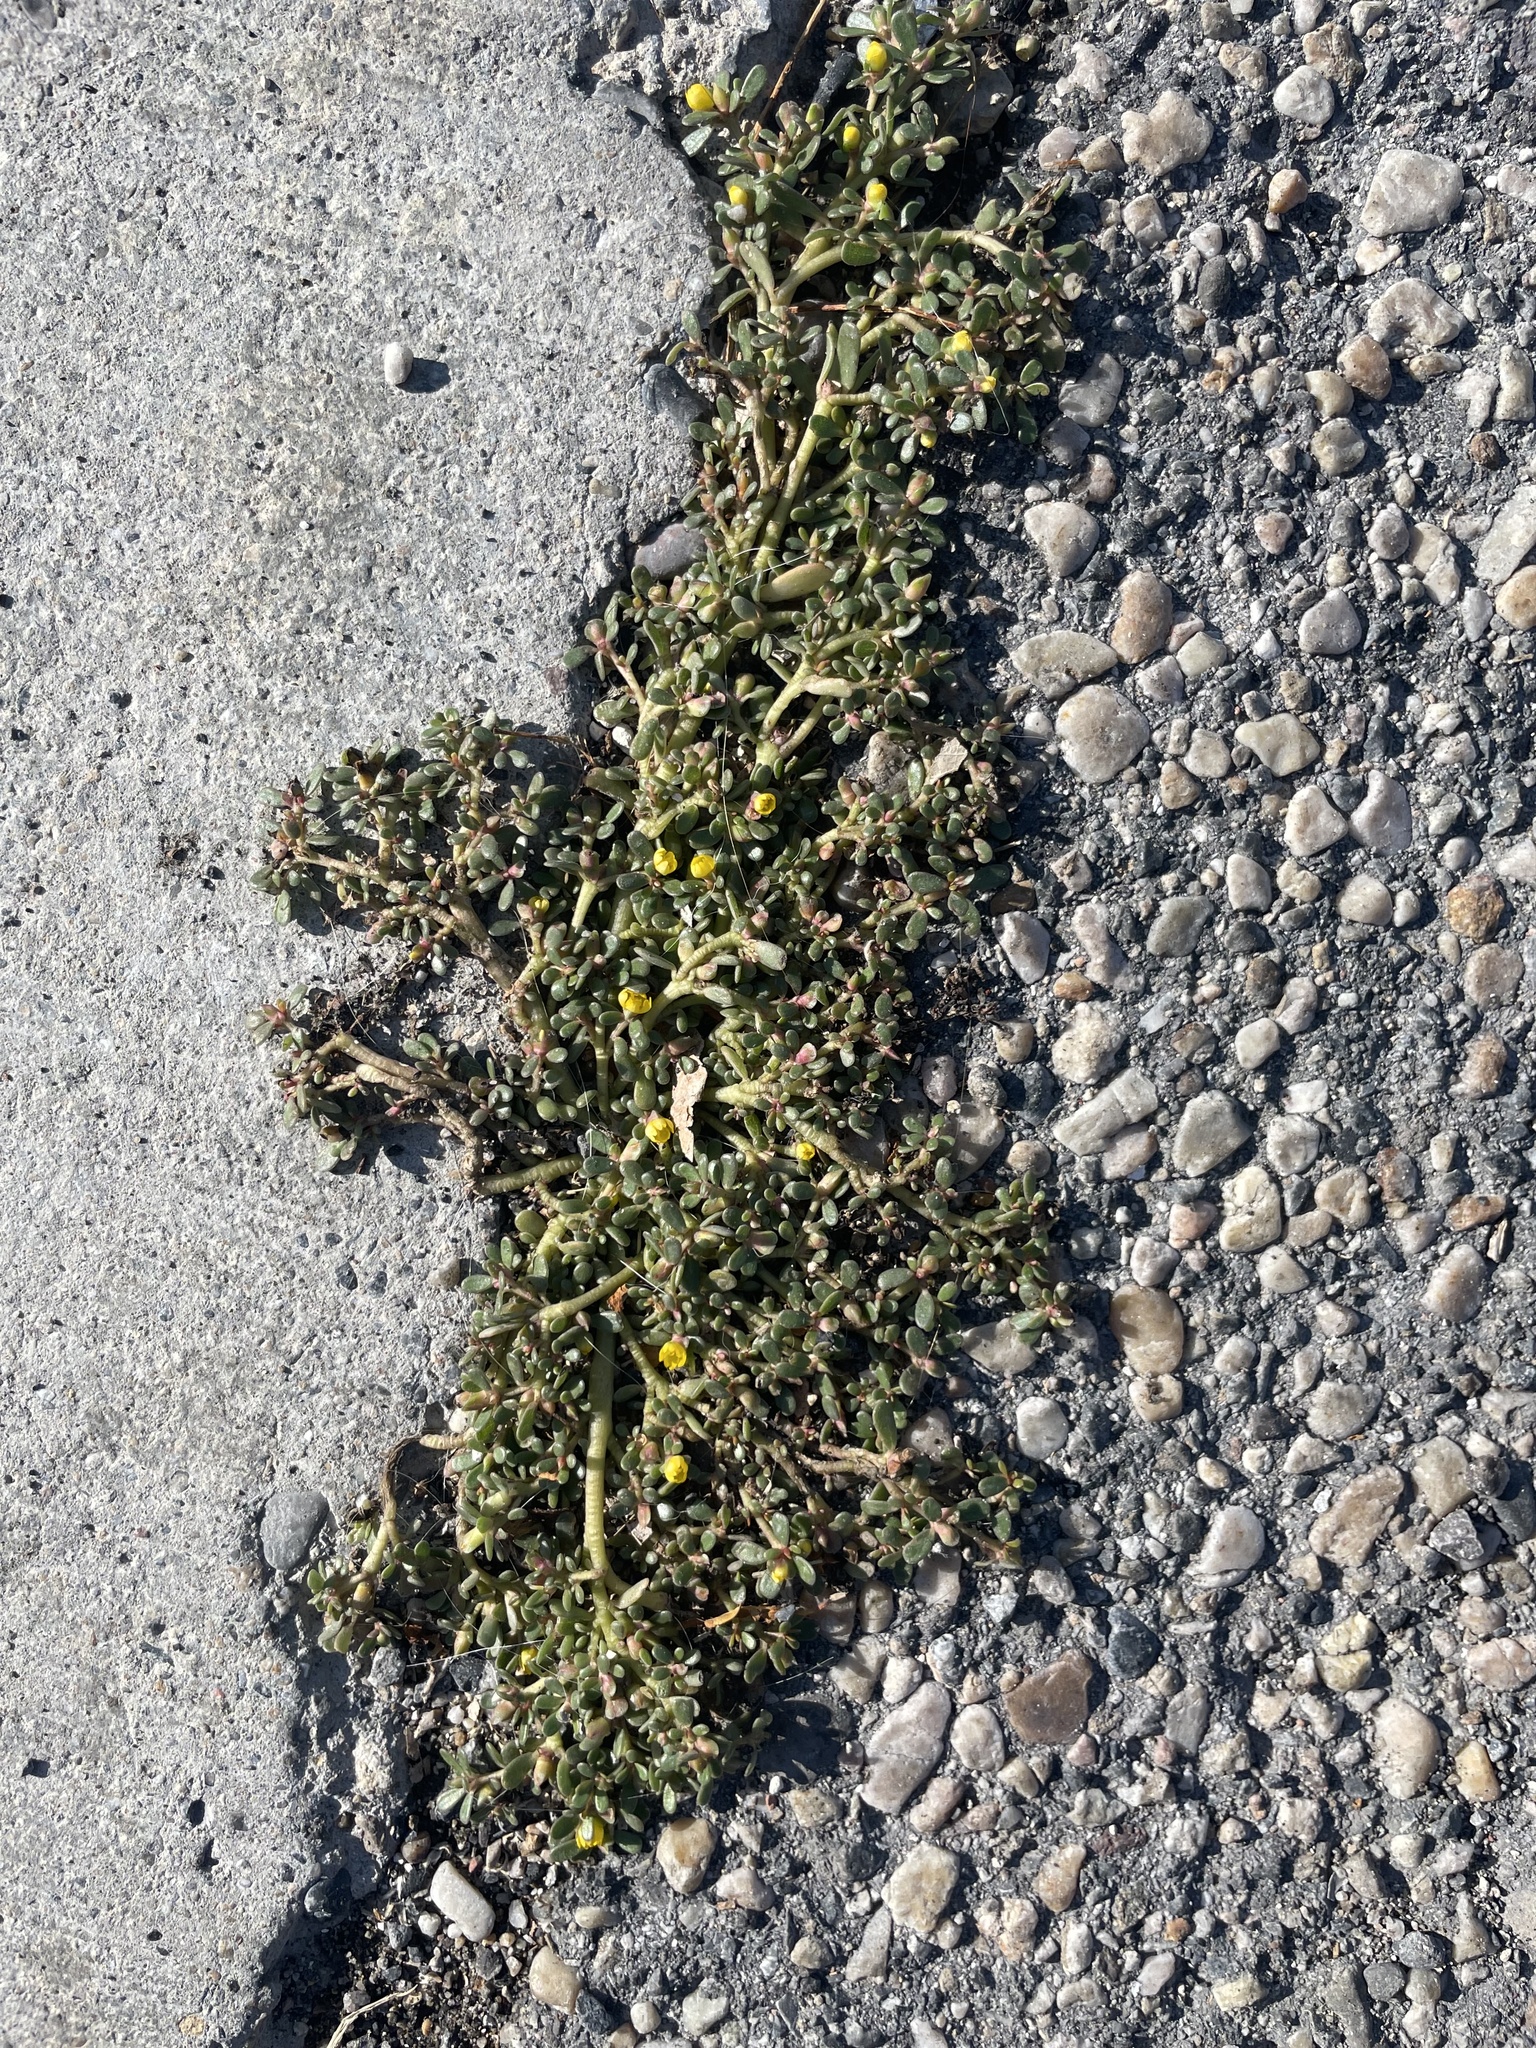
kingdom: Plantae
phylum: Tracheophyta
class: Magnoliopsida
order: Caryophyllales
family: Portulacaceae
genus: Portulaca
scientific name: Portulaca oleracea
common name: Common purslane
